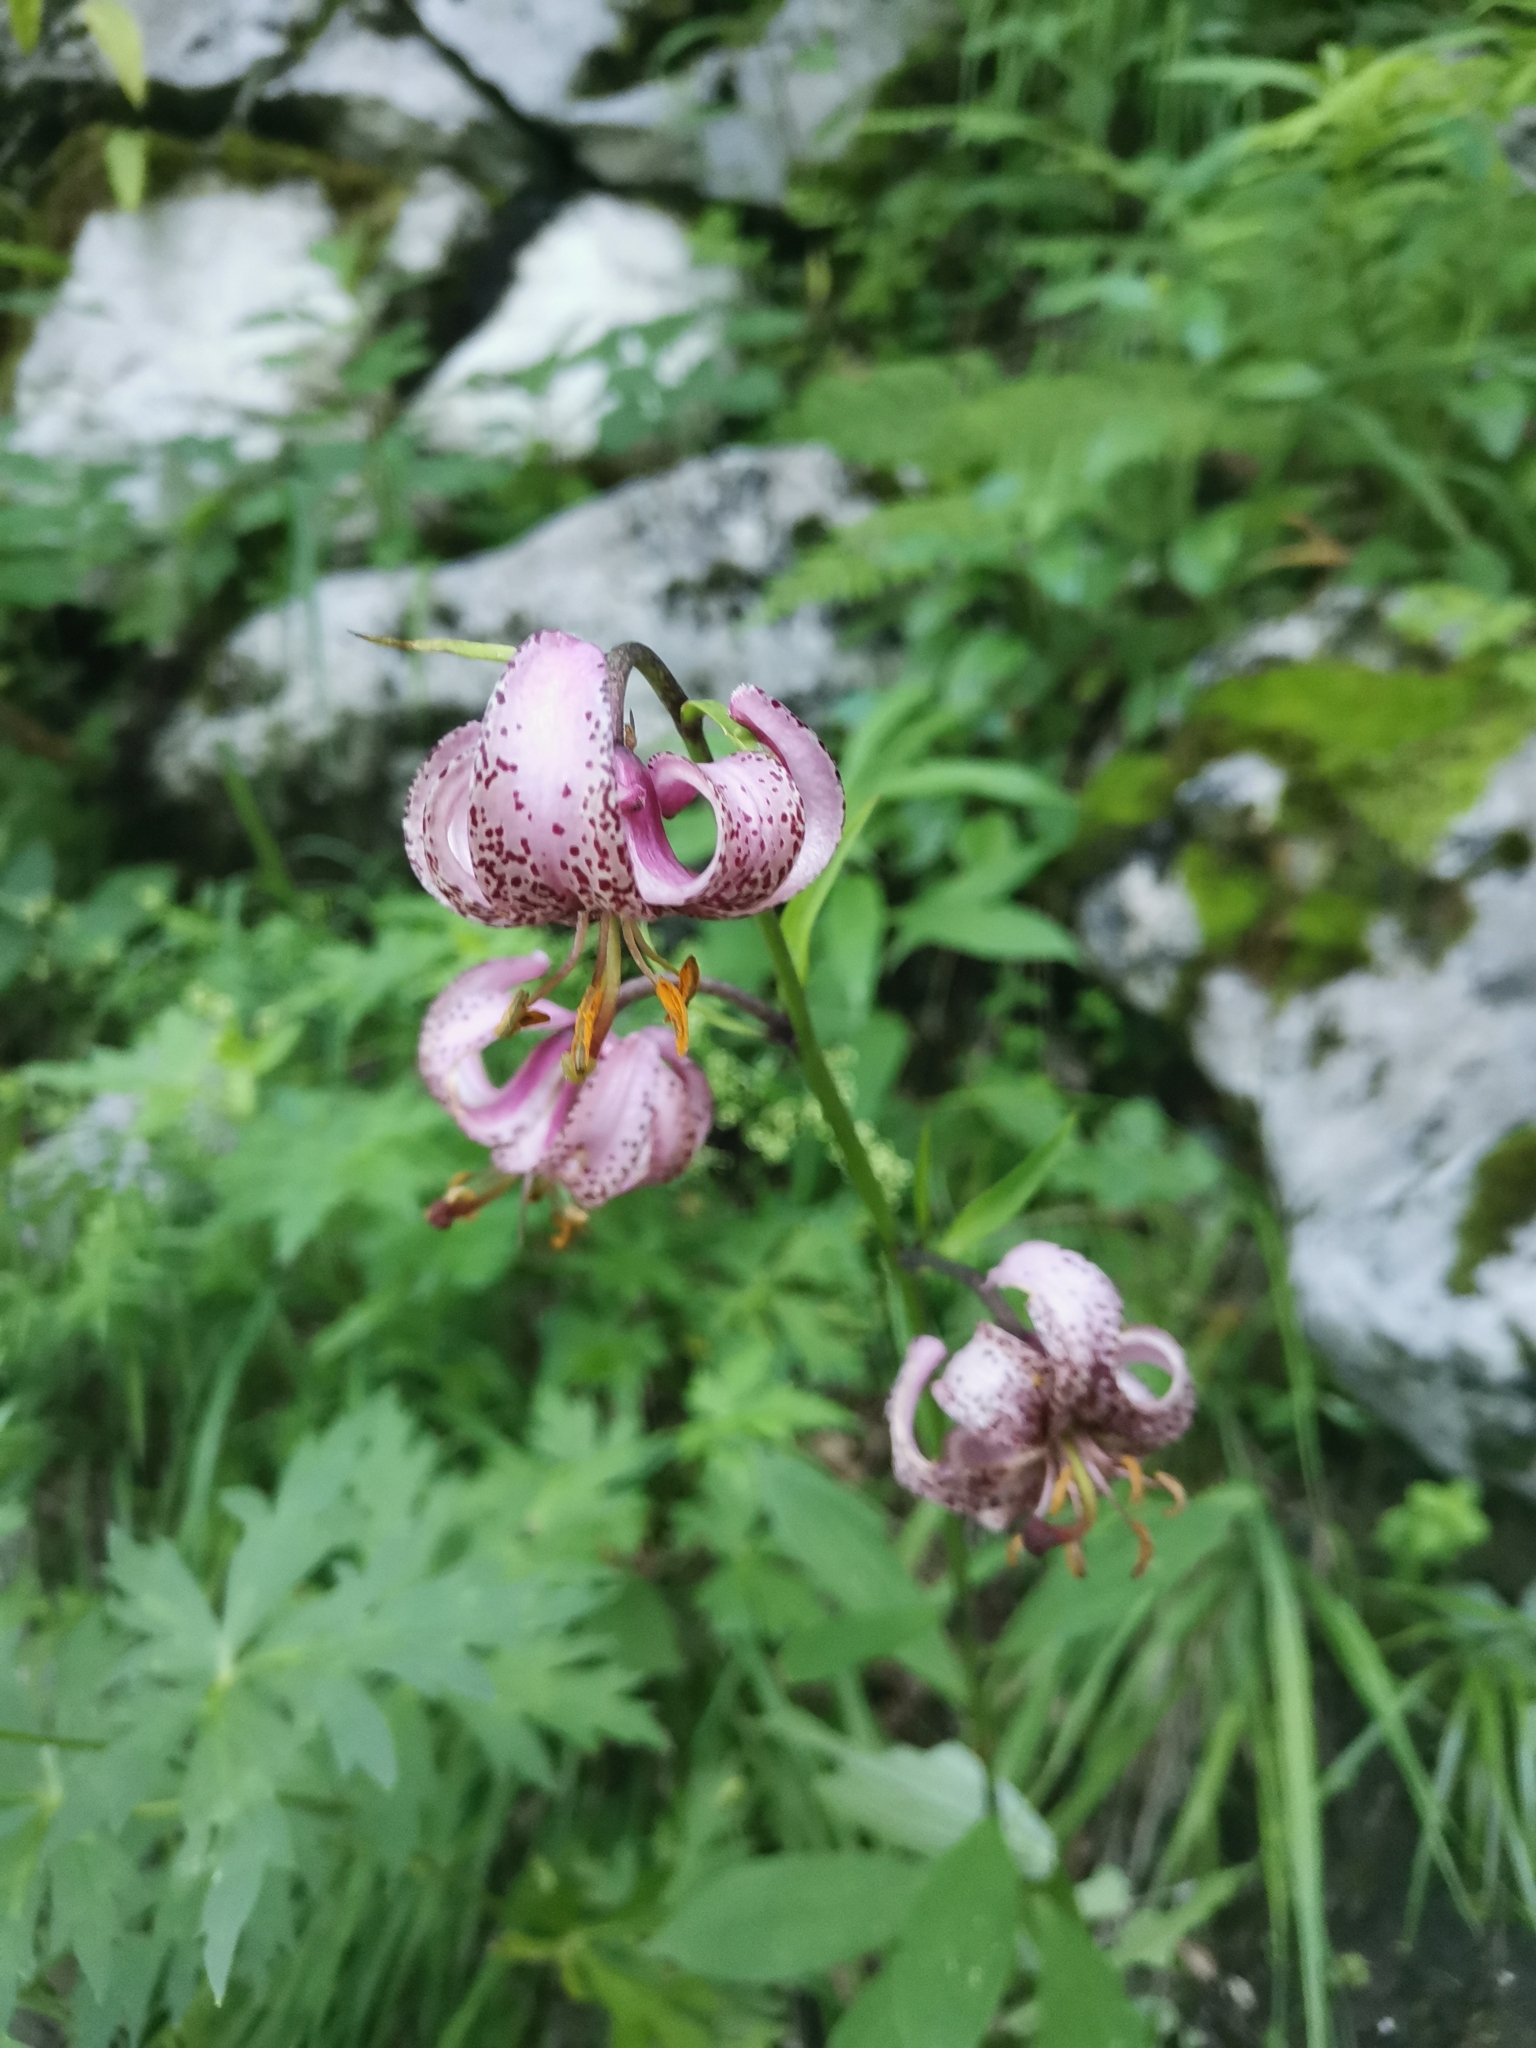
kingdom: Plantae
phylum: Tracheophyta
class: Liliopsida
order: Liliales
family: Liliaceae
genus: Lilium
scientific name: Lilium martagon
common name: Martagon lily
